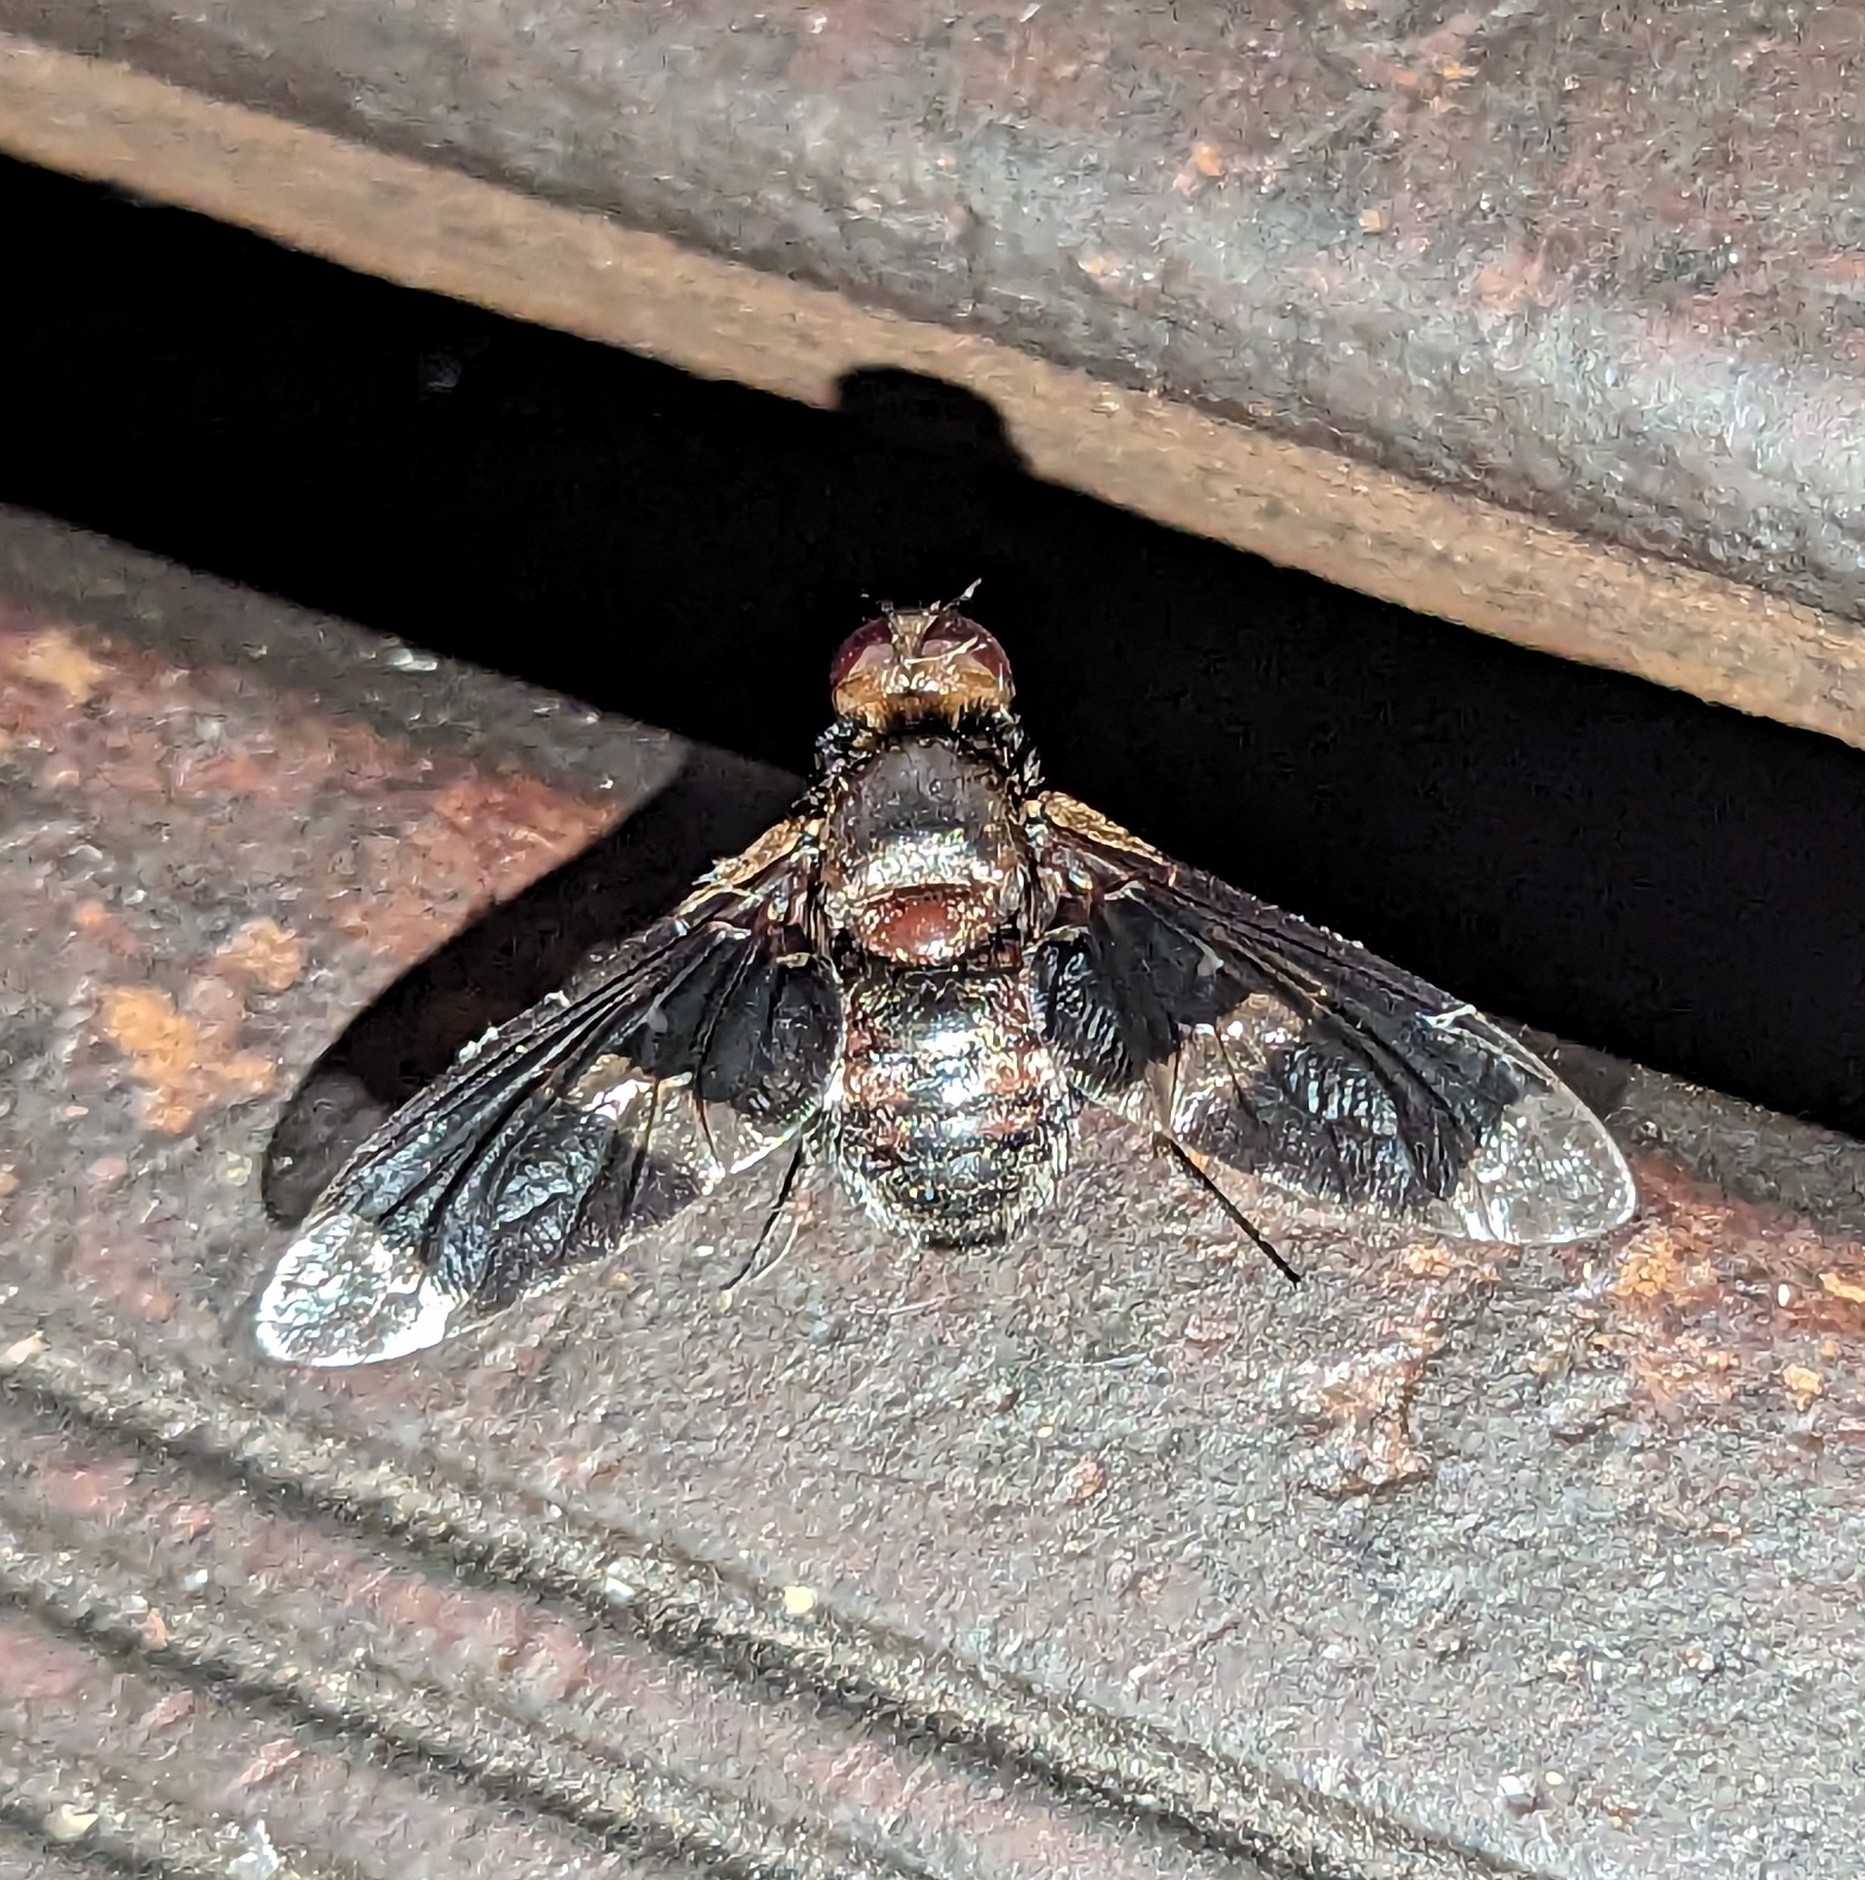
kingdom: Animalia
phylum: Arthropoda
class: Insecta
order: Diptera
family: Bombyliidae
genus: Exoprosopa
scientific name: Exoprosopa praefica
